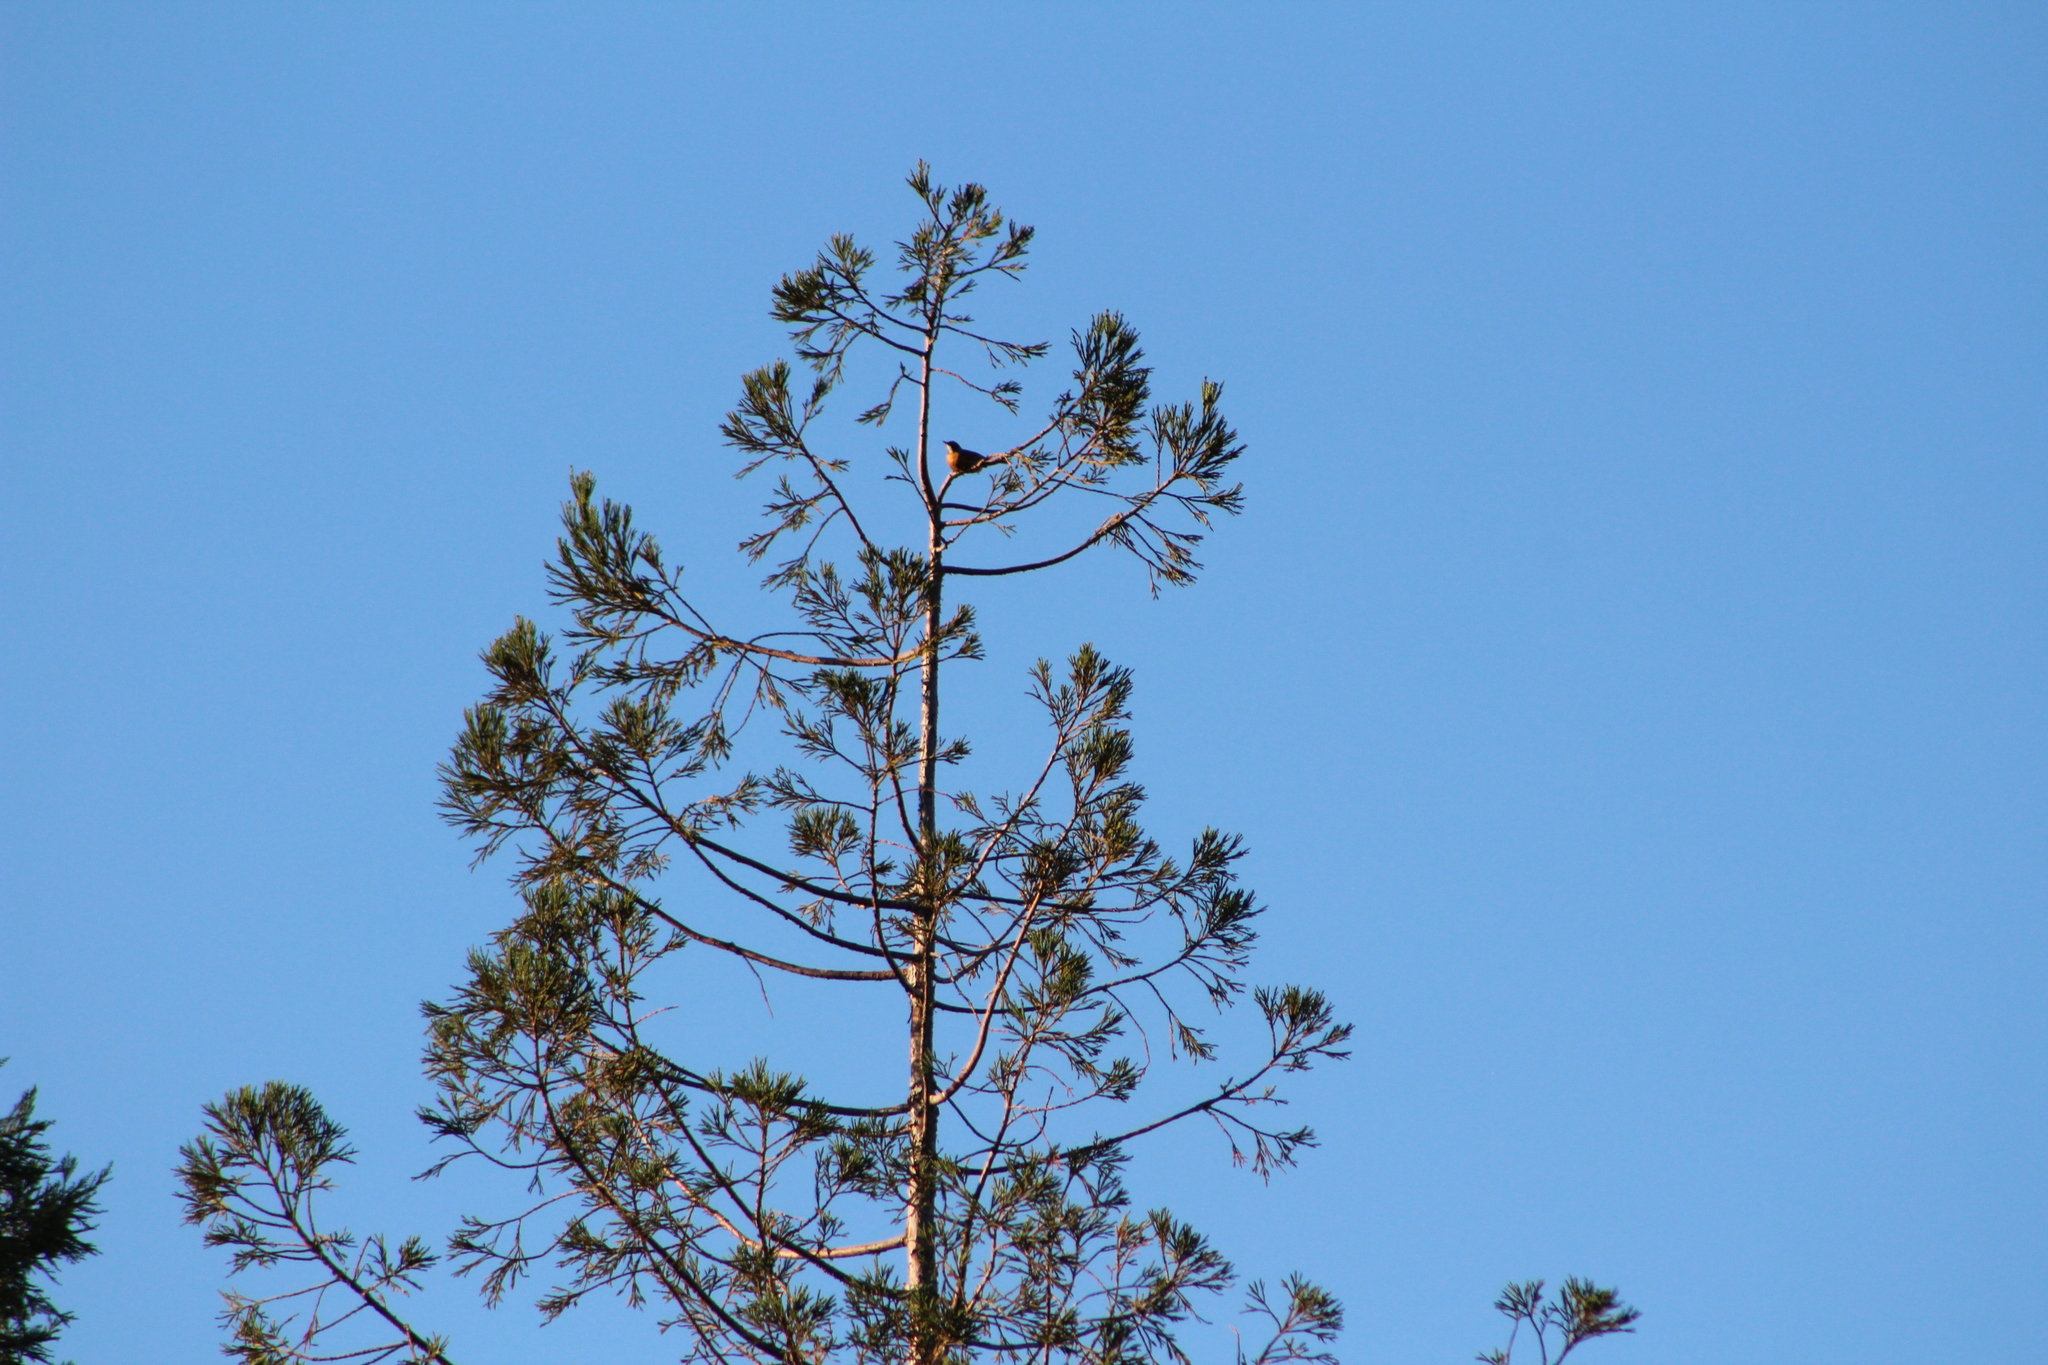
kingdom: Animalia
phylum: Chordata
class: Aves
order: Passeriformes
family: Turdidae
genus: Turdus
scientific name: Turdus migratorius
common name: American robin
